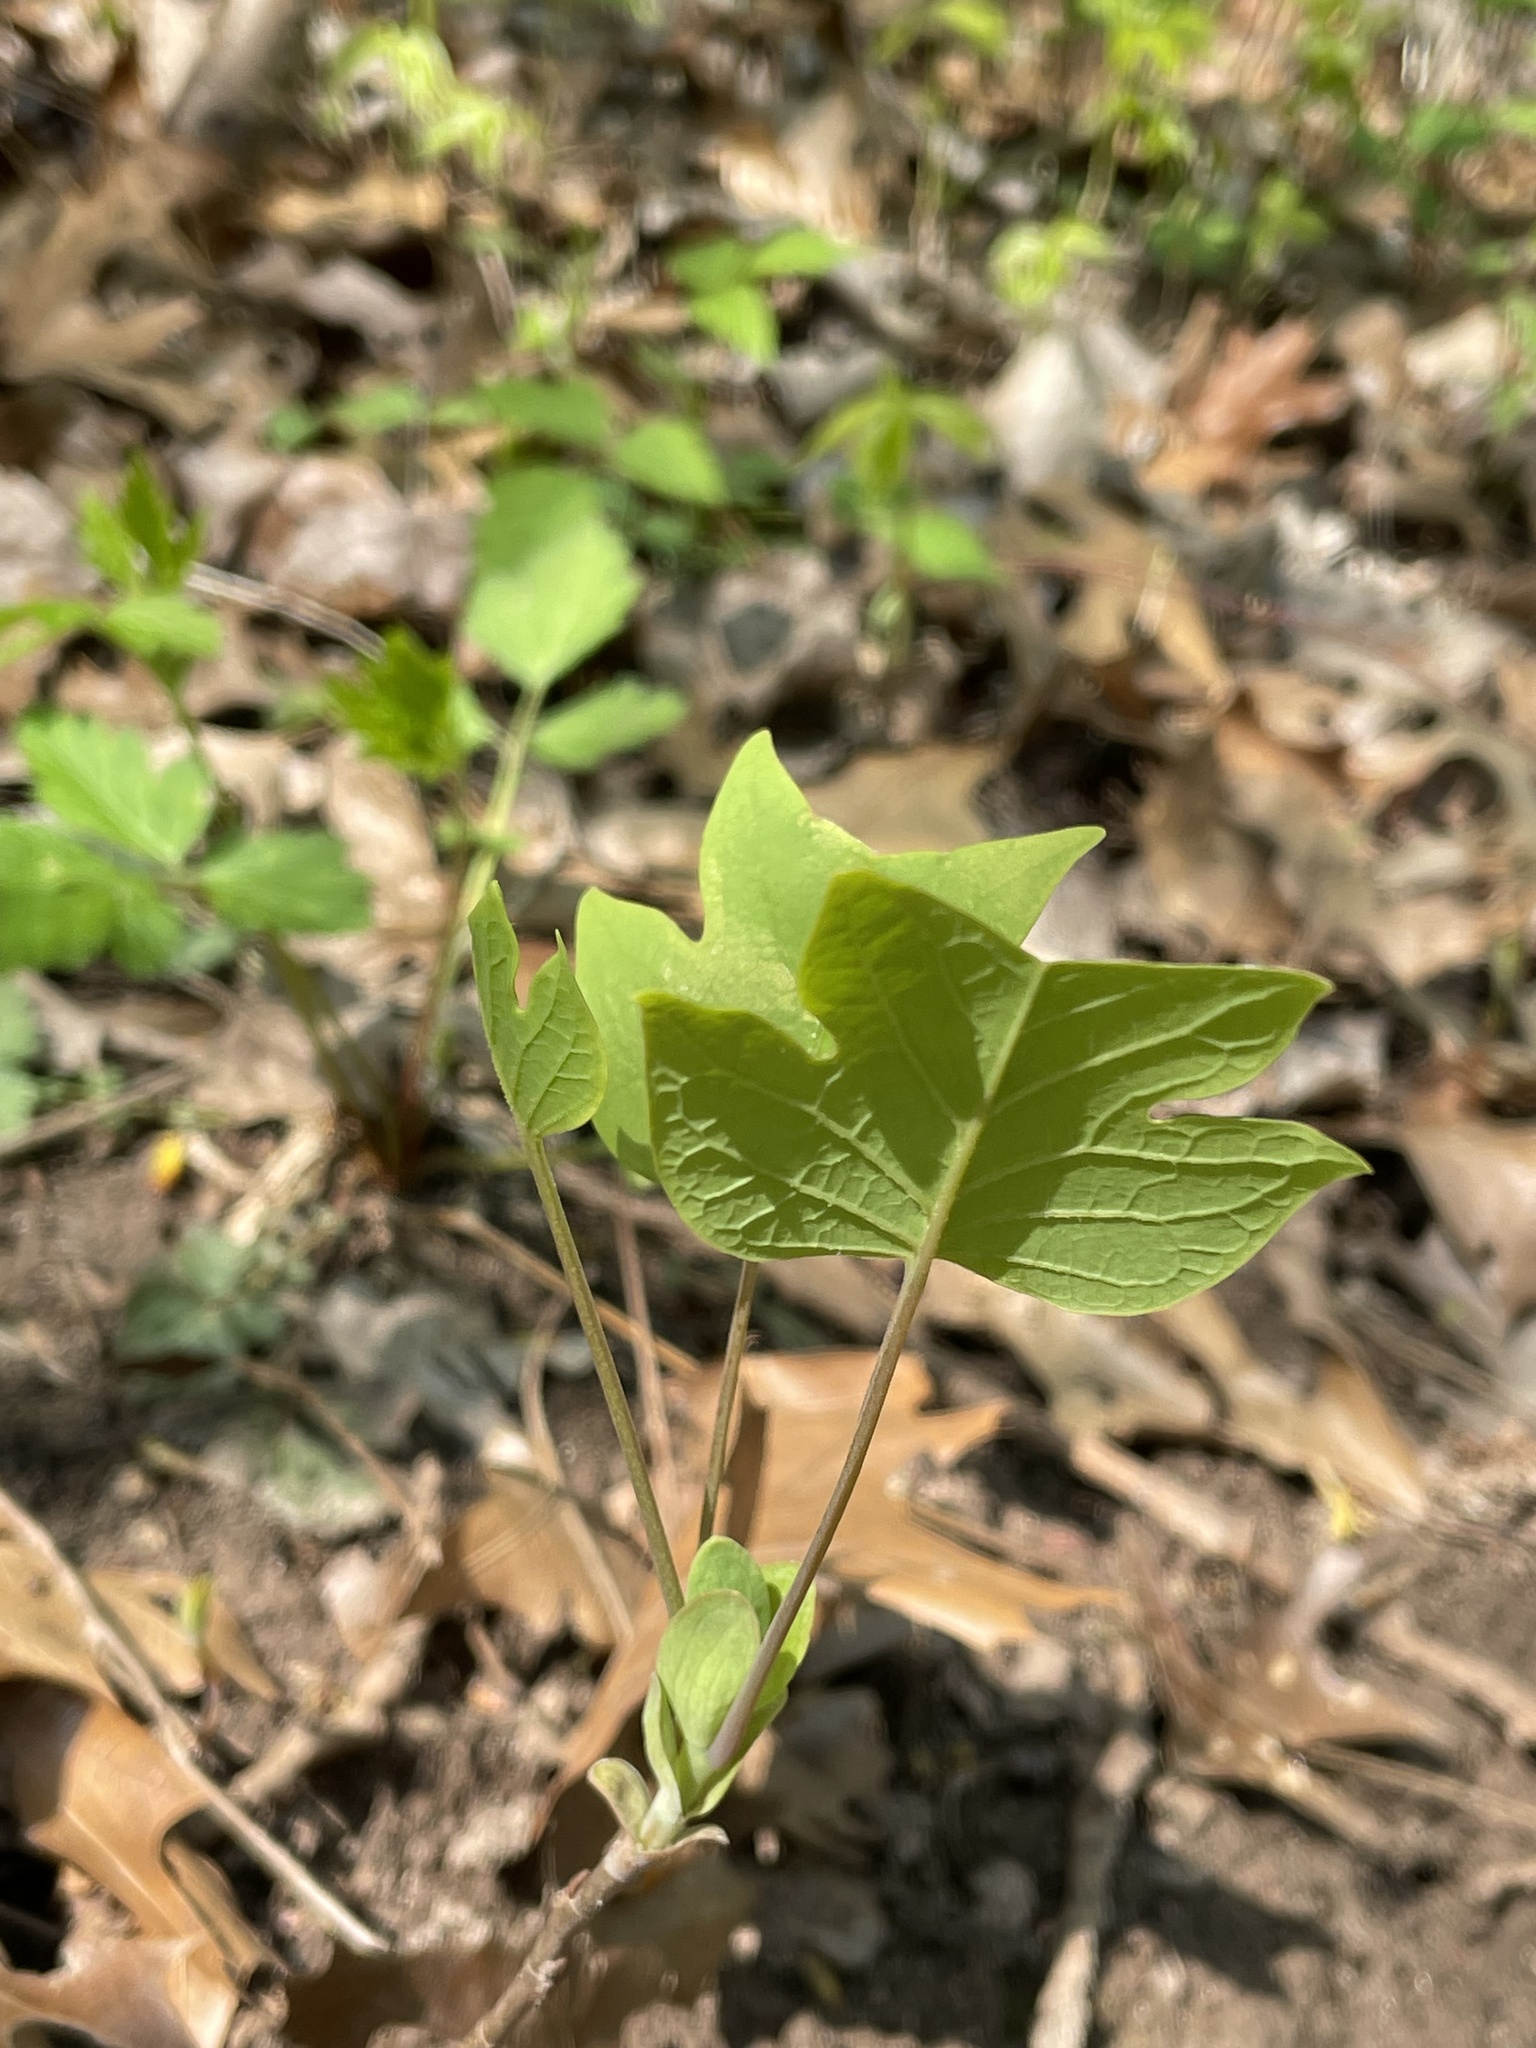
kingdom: Plantae
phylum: Tracheophyta
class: Magnoliopsida
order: Magnoliales
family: Magnoliaceae
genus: Liriodendron
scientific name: Liriodendron tulipifera
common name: Tulip tree
